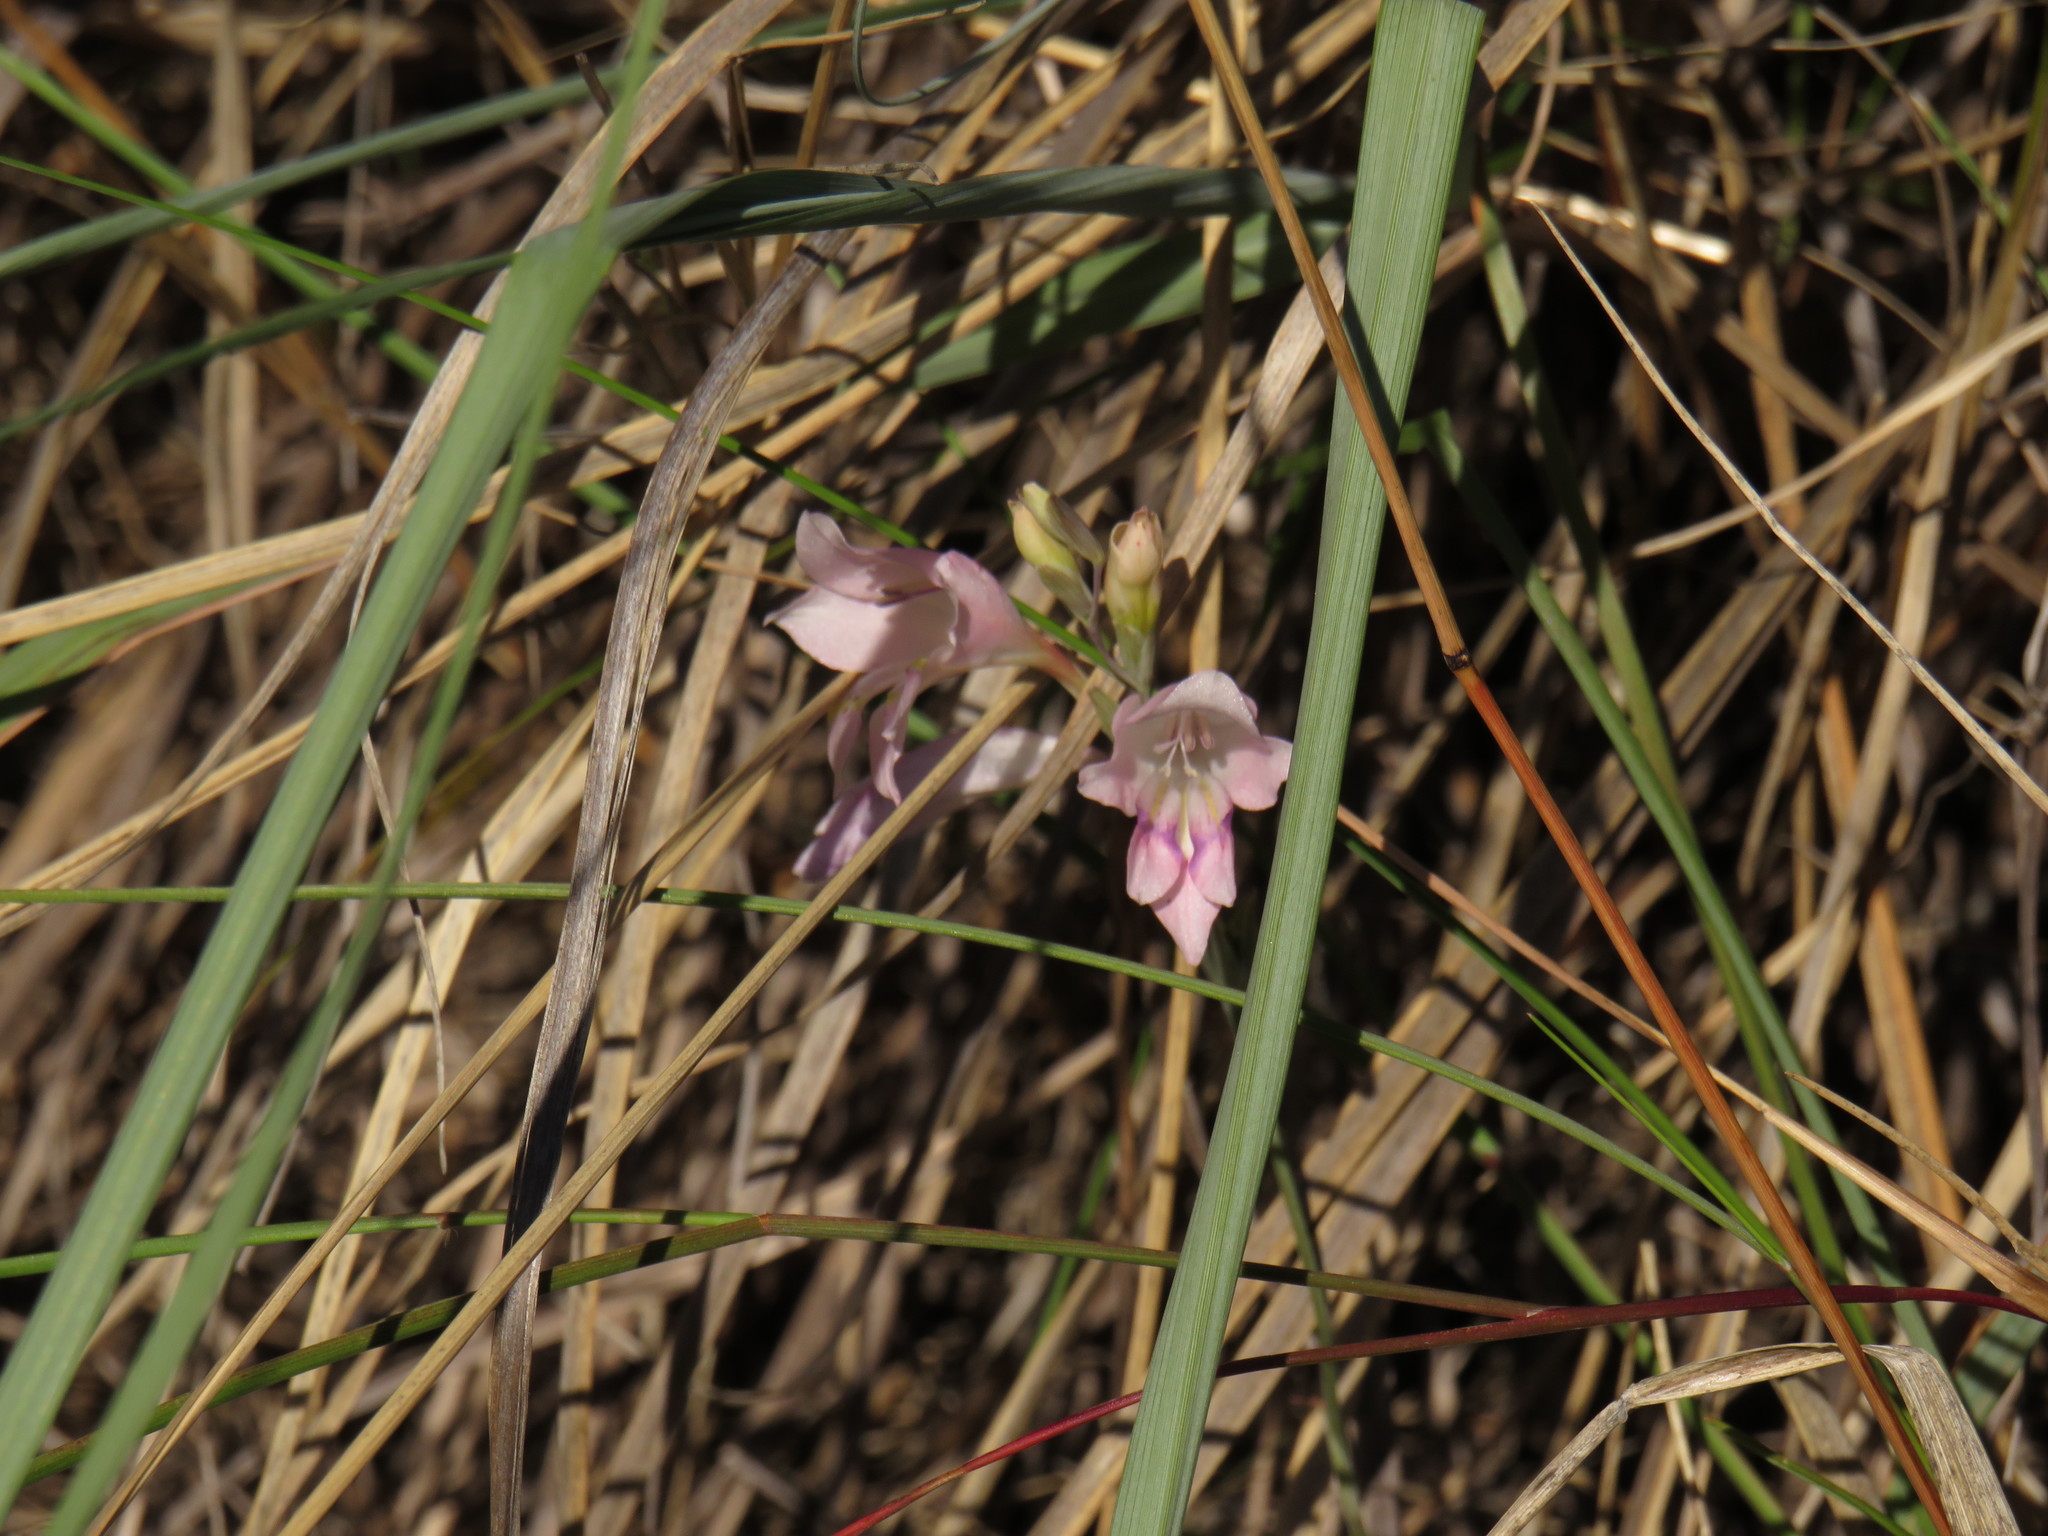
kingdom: Plantae
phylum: Tracheophyta
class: Liliopsida
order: Asparagales
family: Iridaceae
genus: Gladiolus
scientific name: Gladiolus brevifolius
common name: March pypie
